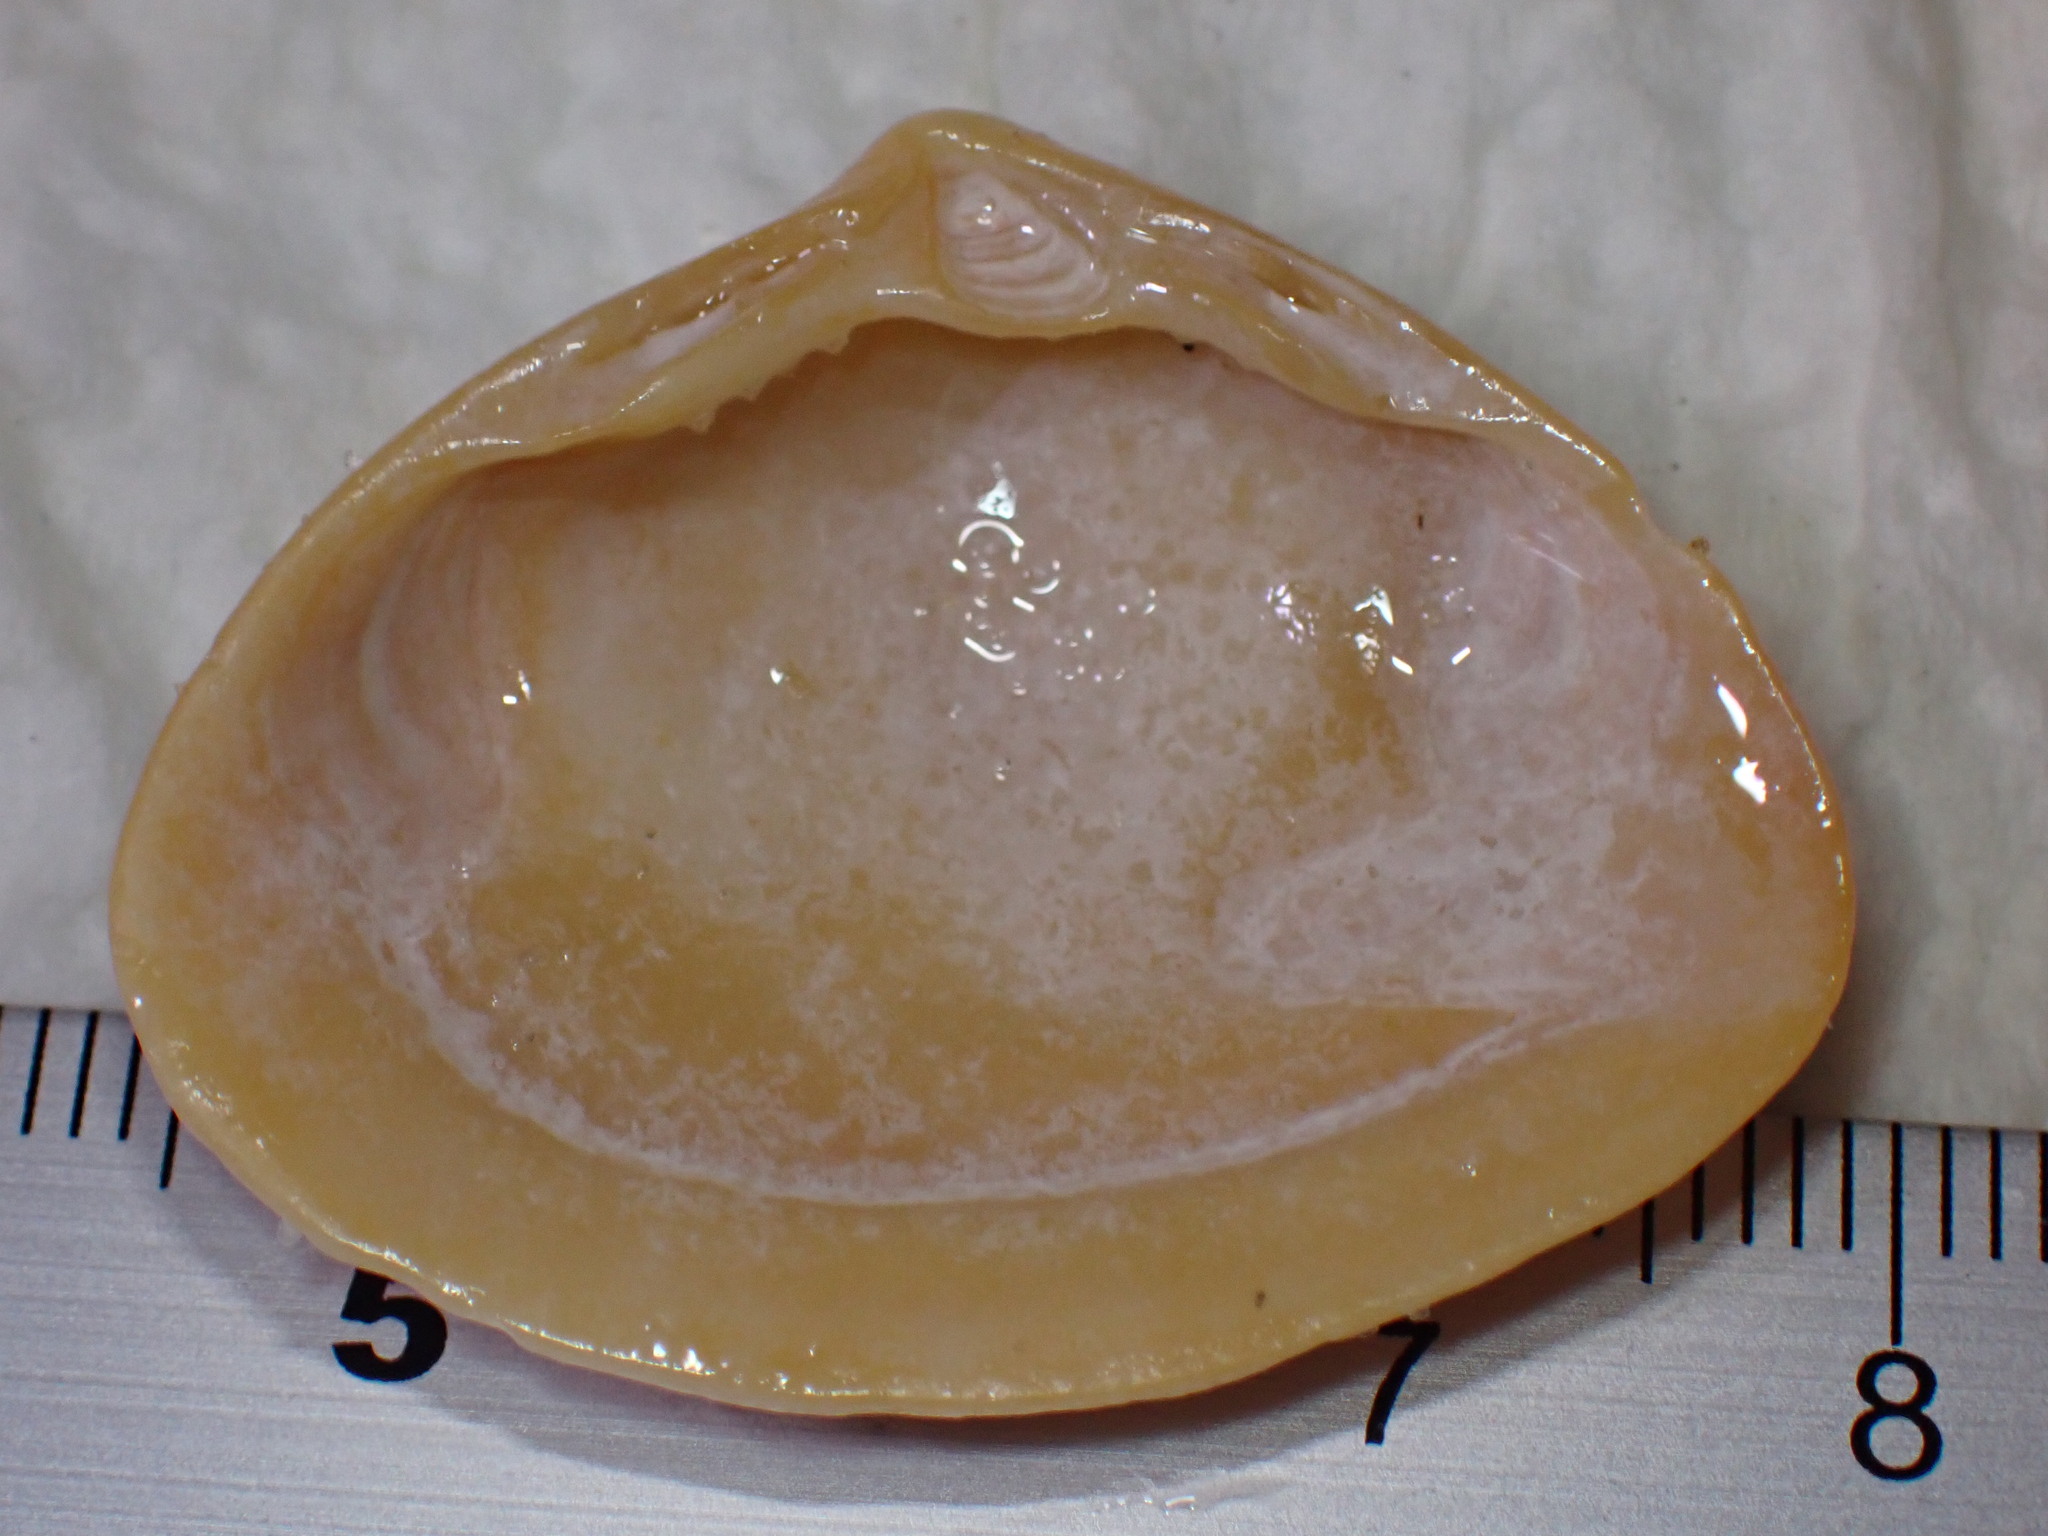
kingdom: Animalia
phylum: Mollusca
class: Bivalvia
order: Venerida
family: Mactridae
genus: Spisula
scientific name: Spisula solida
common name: Thick trough shell
